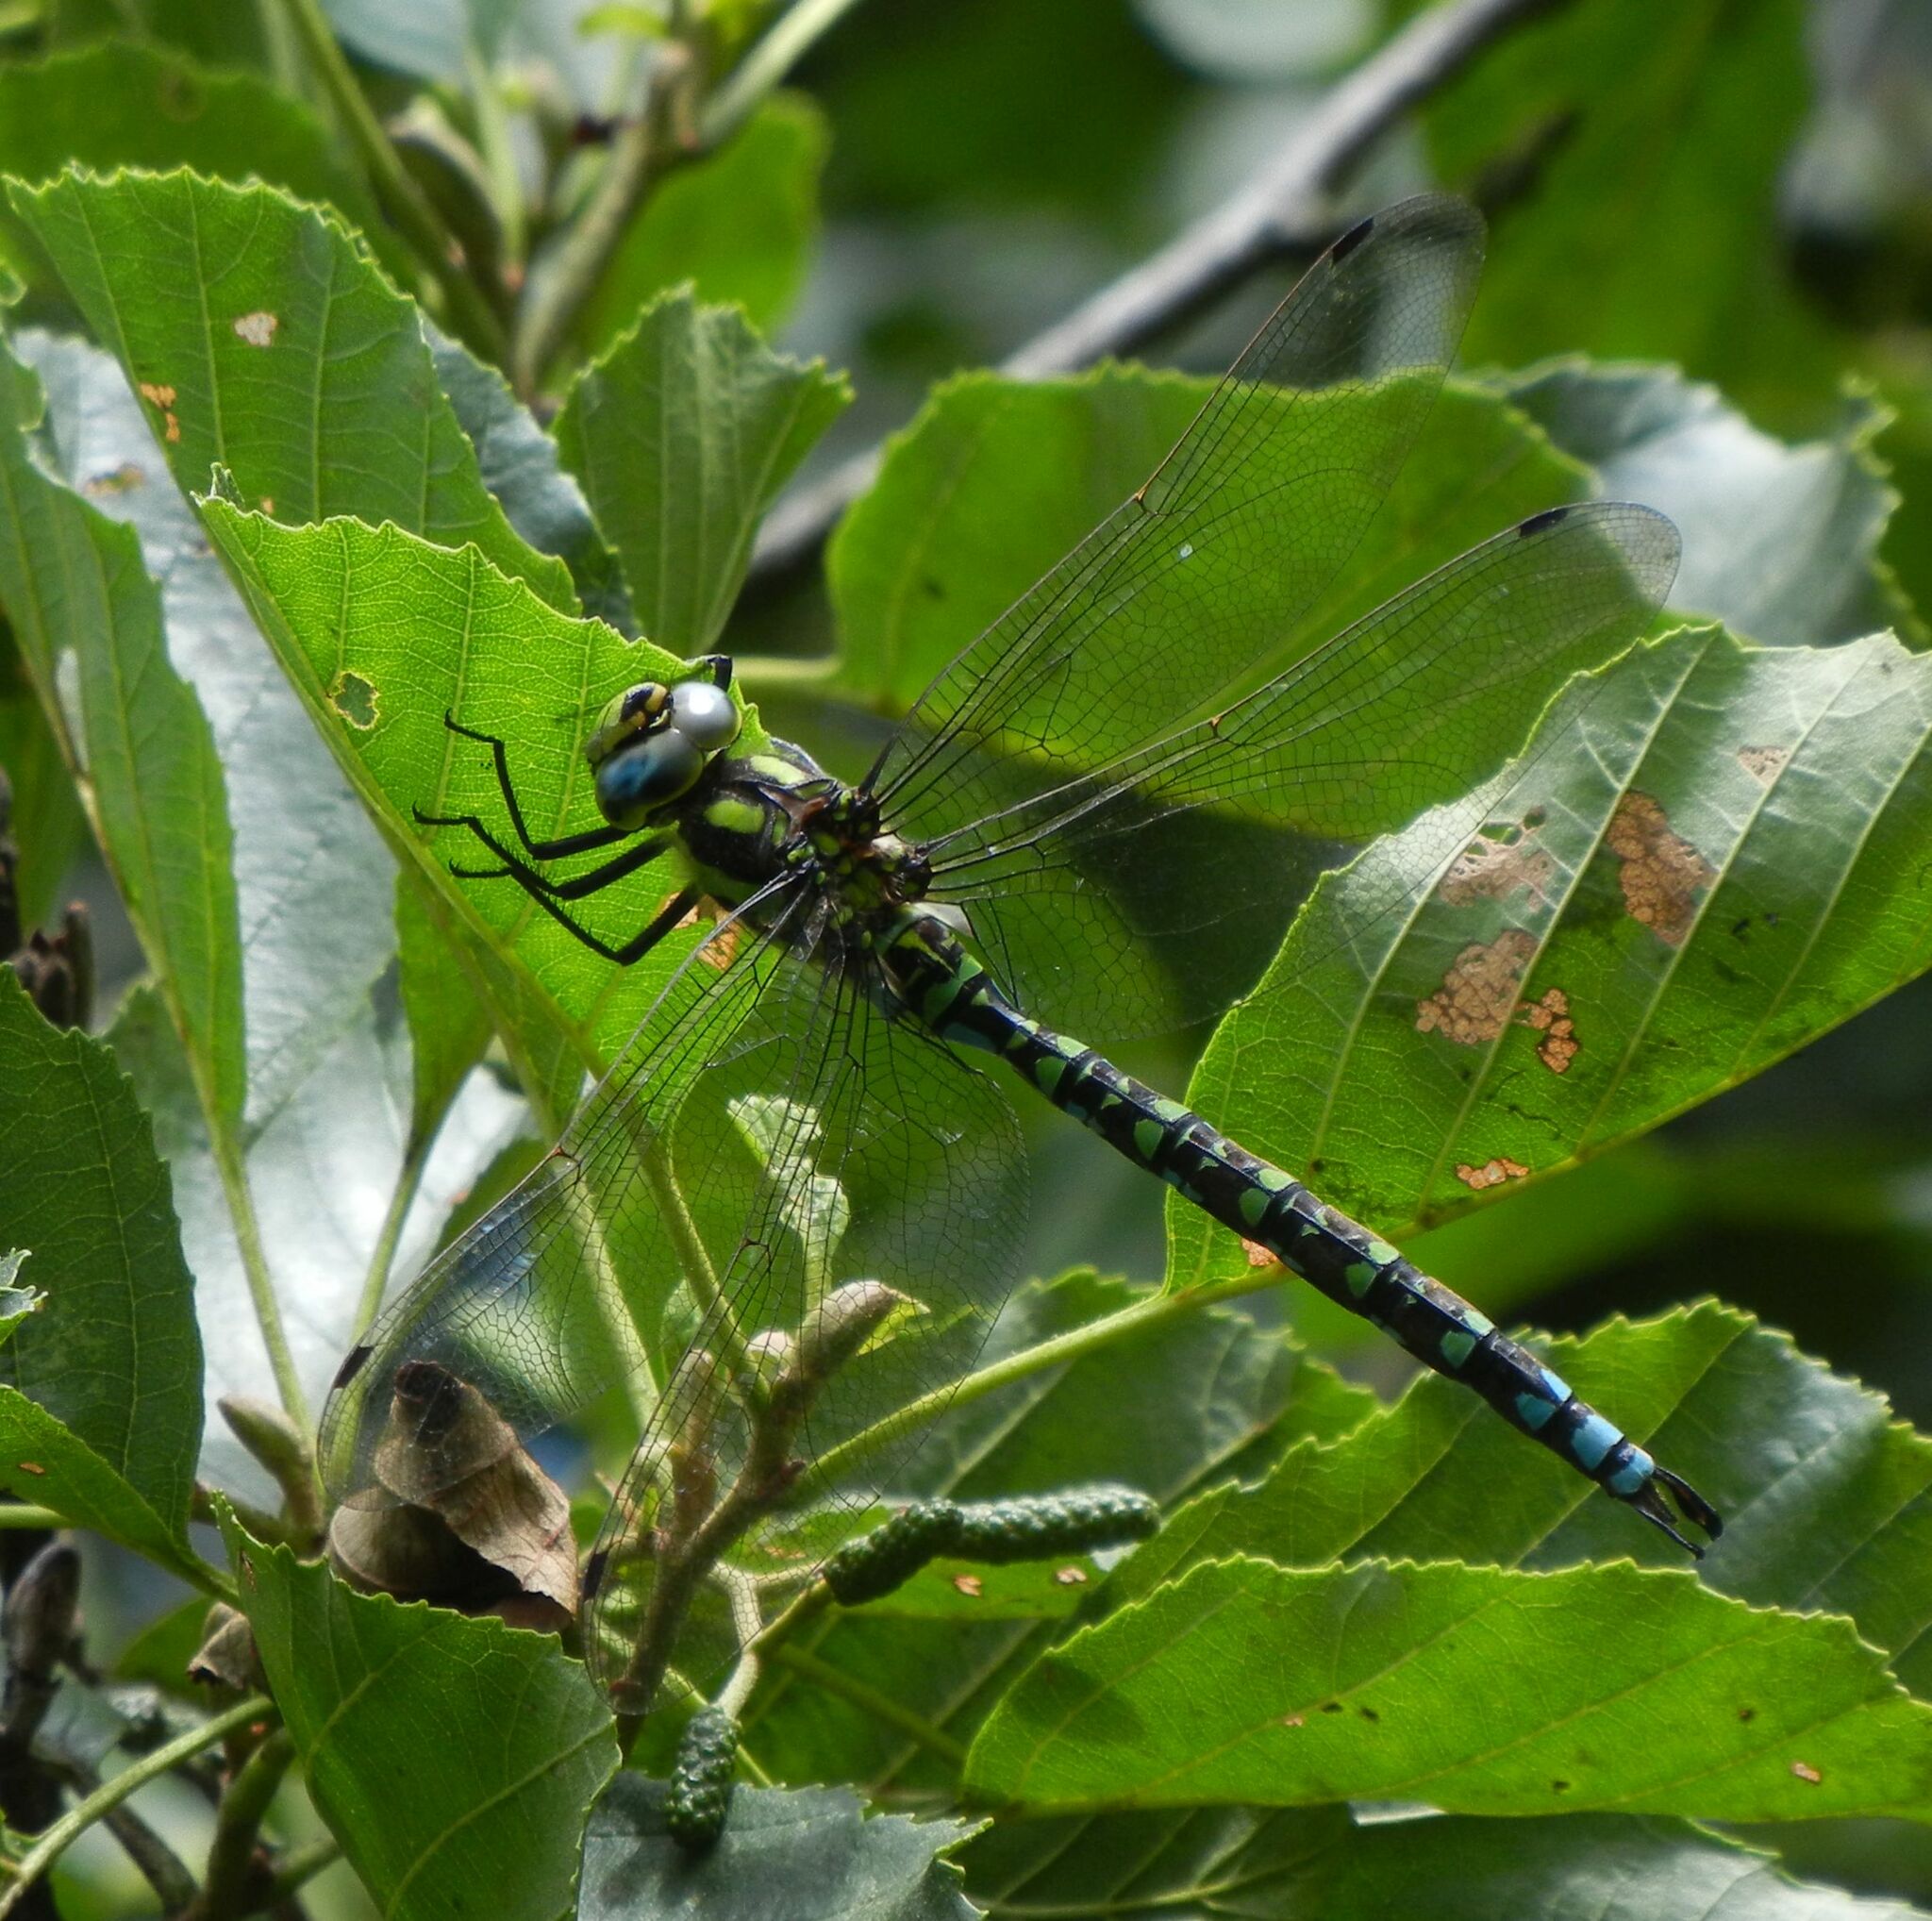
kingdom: Animalia
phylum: Arthropoda
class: Insecta
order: Odonata
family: Aeshnidae
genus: Aeshna
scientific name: Aeshna cyanea
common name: Southern hawker
